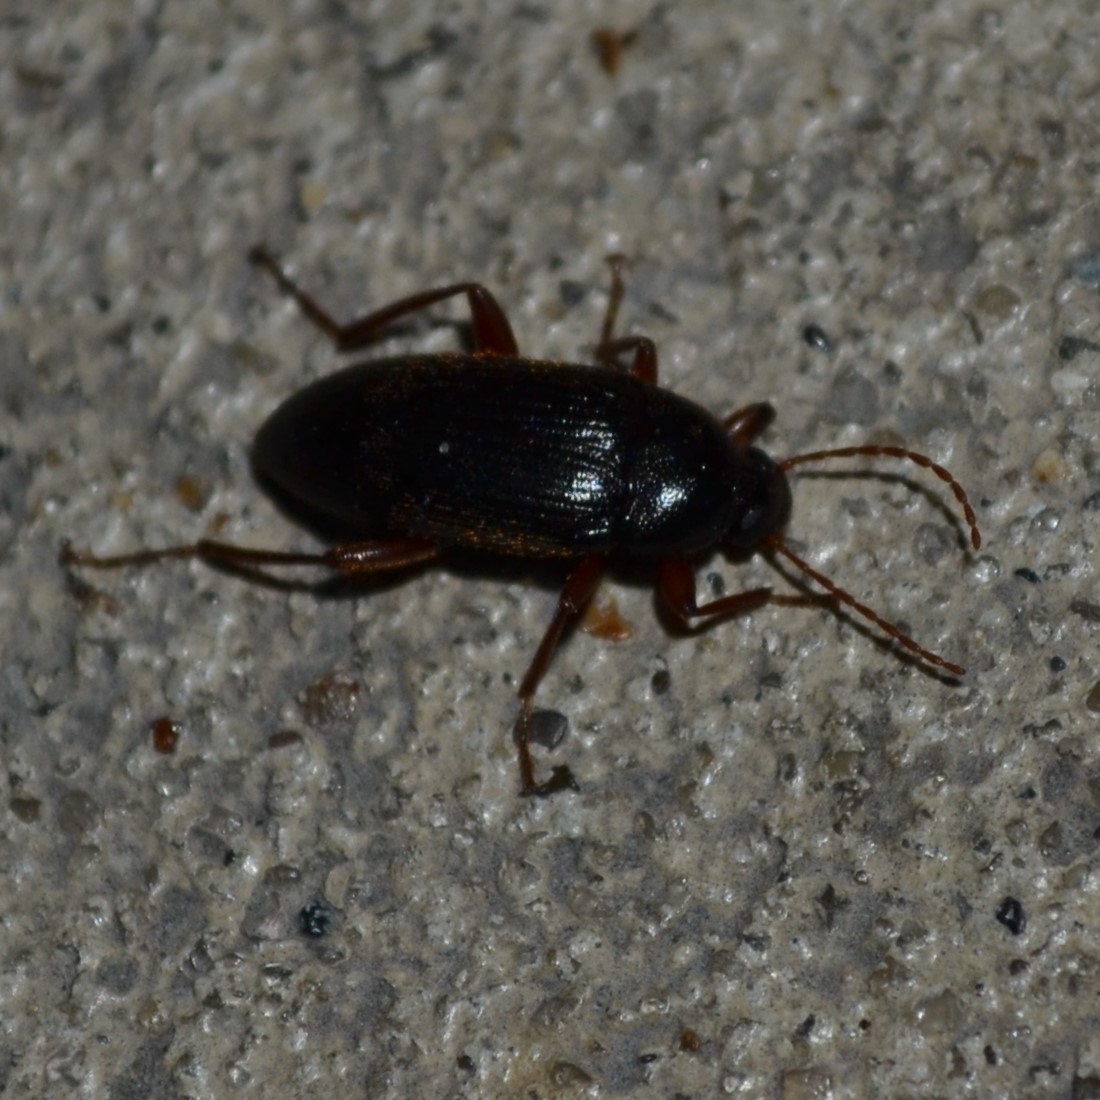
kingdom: Animalia
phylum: Arthropoda
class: Insecta
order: Coleoptera
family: Tenebrionidae
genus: Lobopoda
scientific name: Lobopoda erythrocnemis
